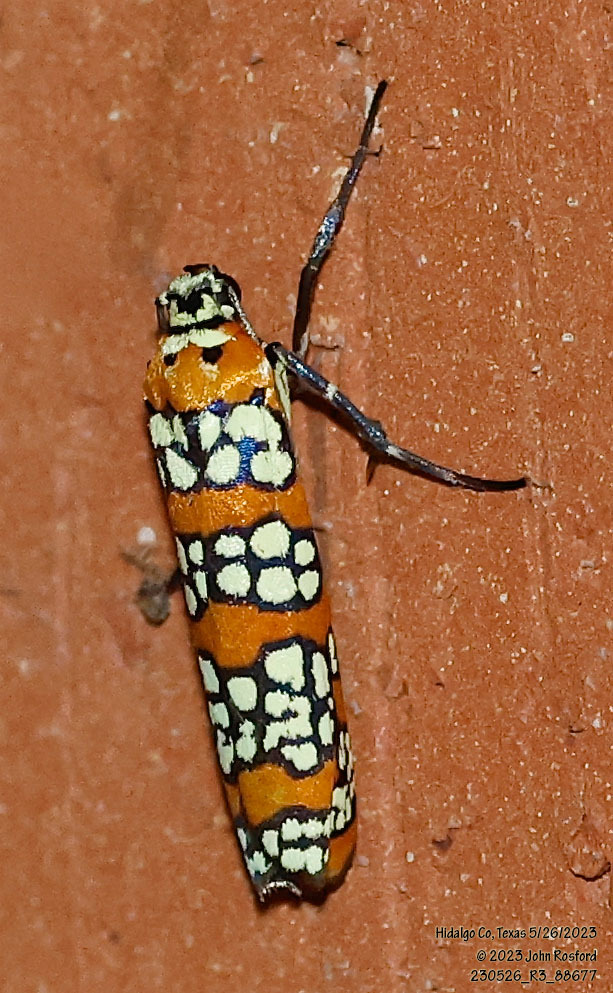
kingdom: Animalia
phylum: Arthropoda
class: Insecta
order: Lepidoptera
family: Attevidae
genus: Atteva
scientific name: Atteva punctella
